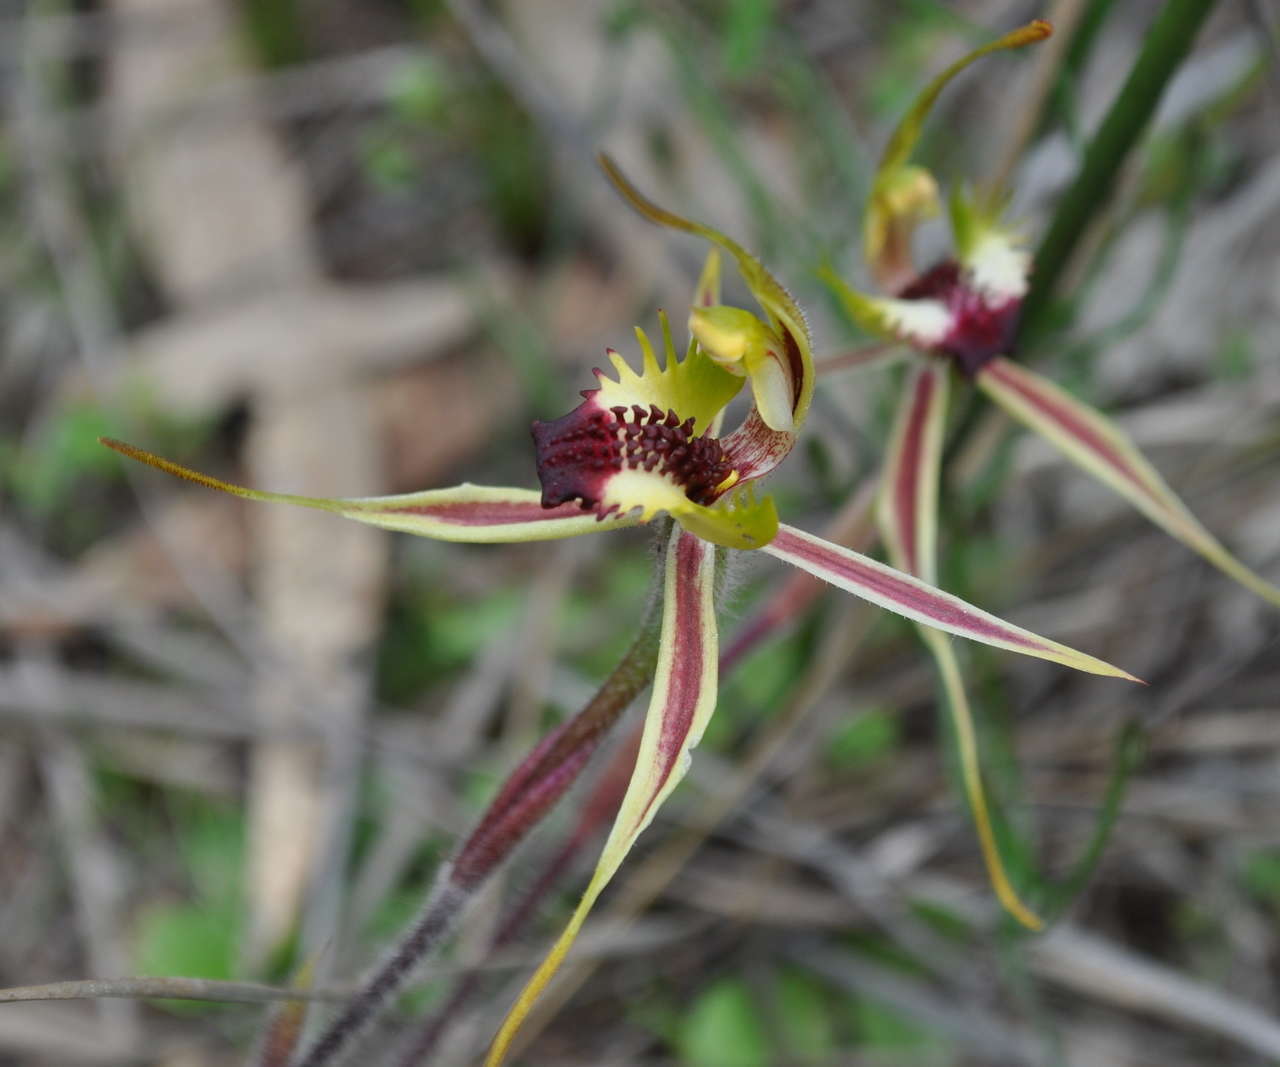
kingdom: Plantae
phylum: Tracheophyta
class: Liliopsida
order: Asparagales
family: Orchidaceae
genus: Caladenia
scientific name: Caladenia parva
